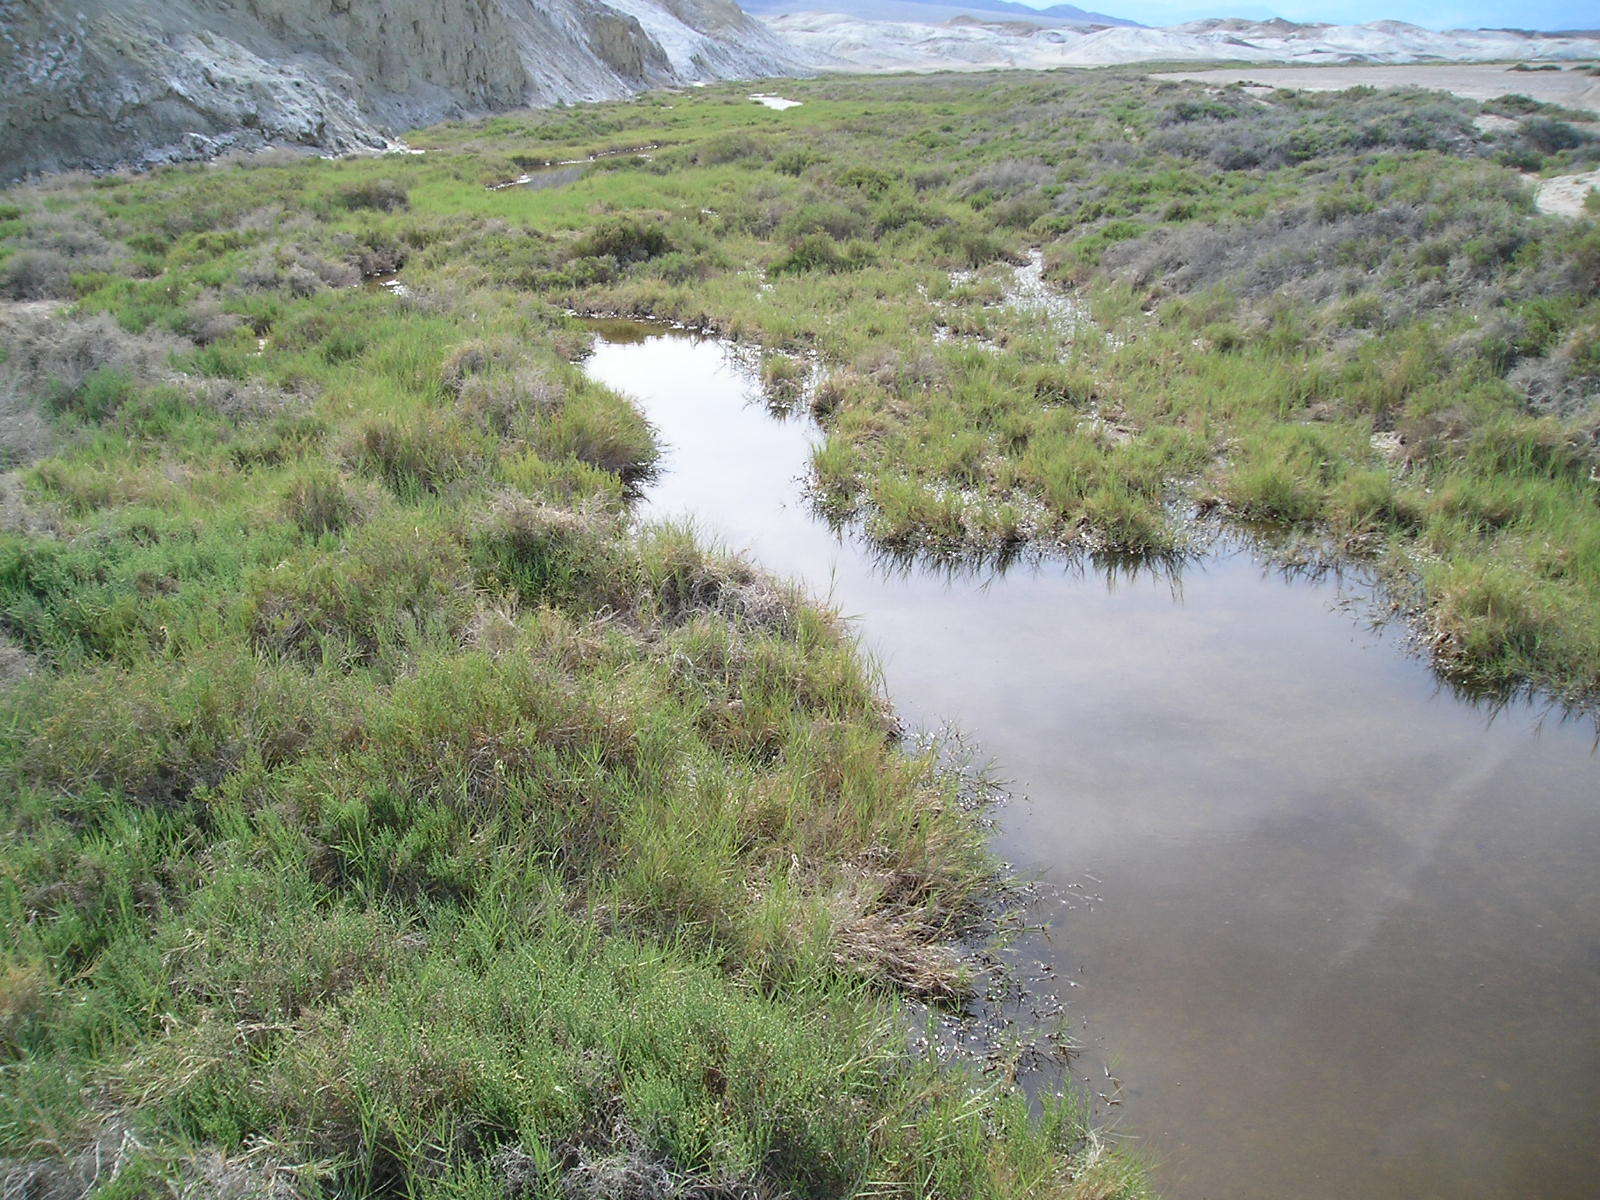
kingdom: Plantae
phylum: Tracheophyta
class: Liliopsida
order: Poales
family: Poaceae
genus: Distichlis
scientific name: Distichlis spicata
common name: Saltgrass
